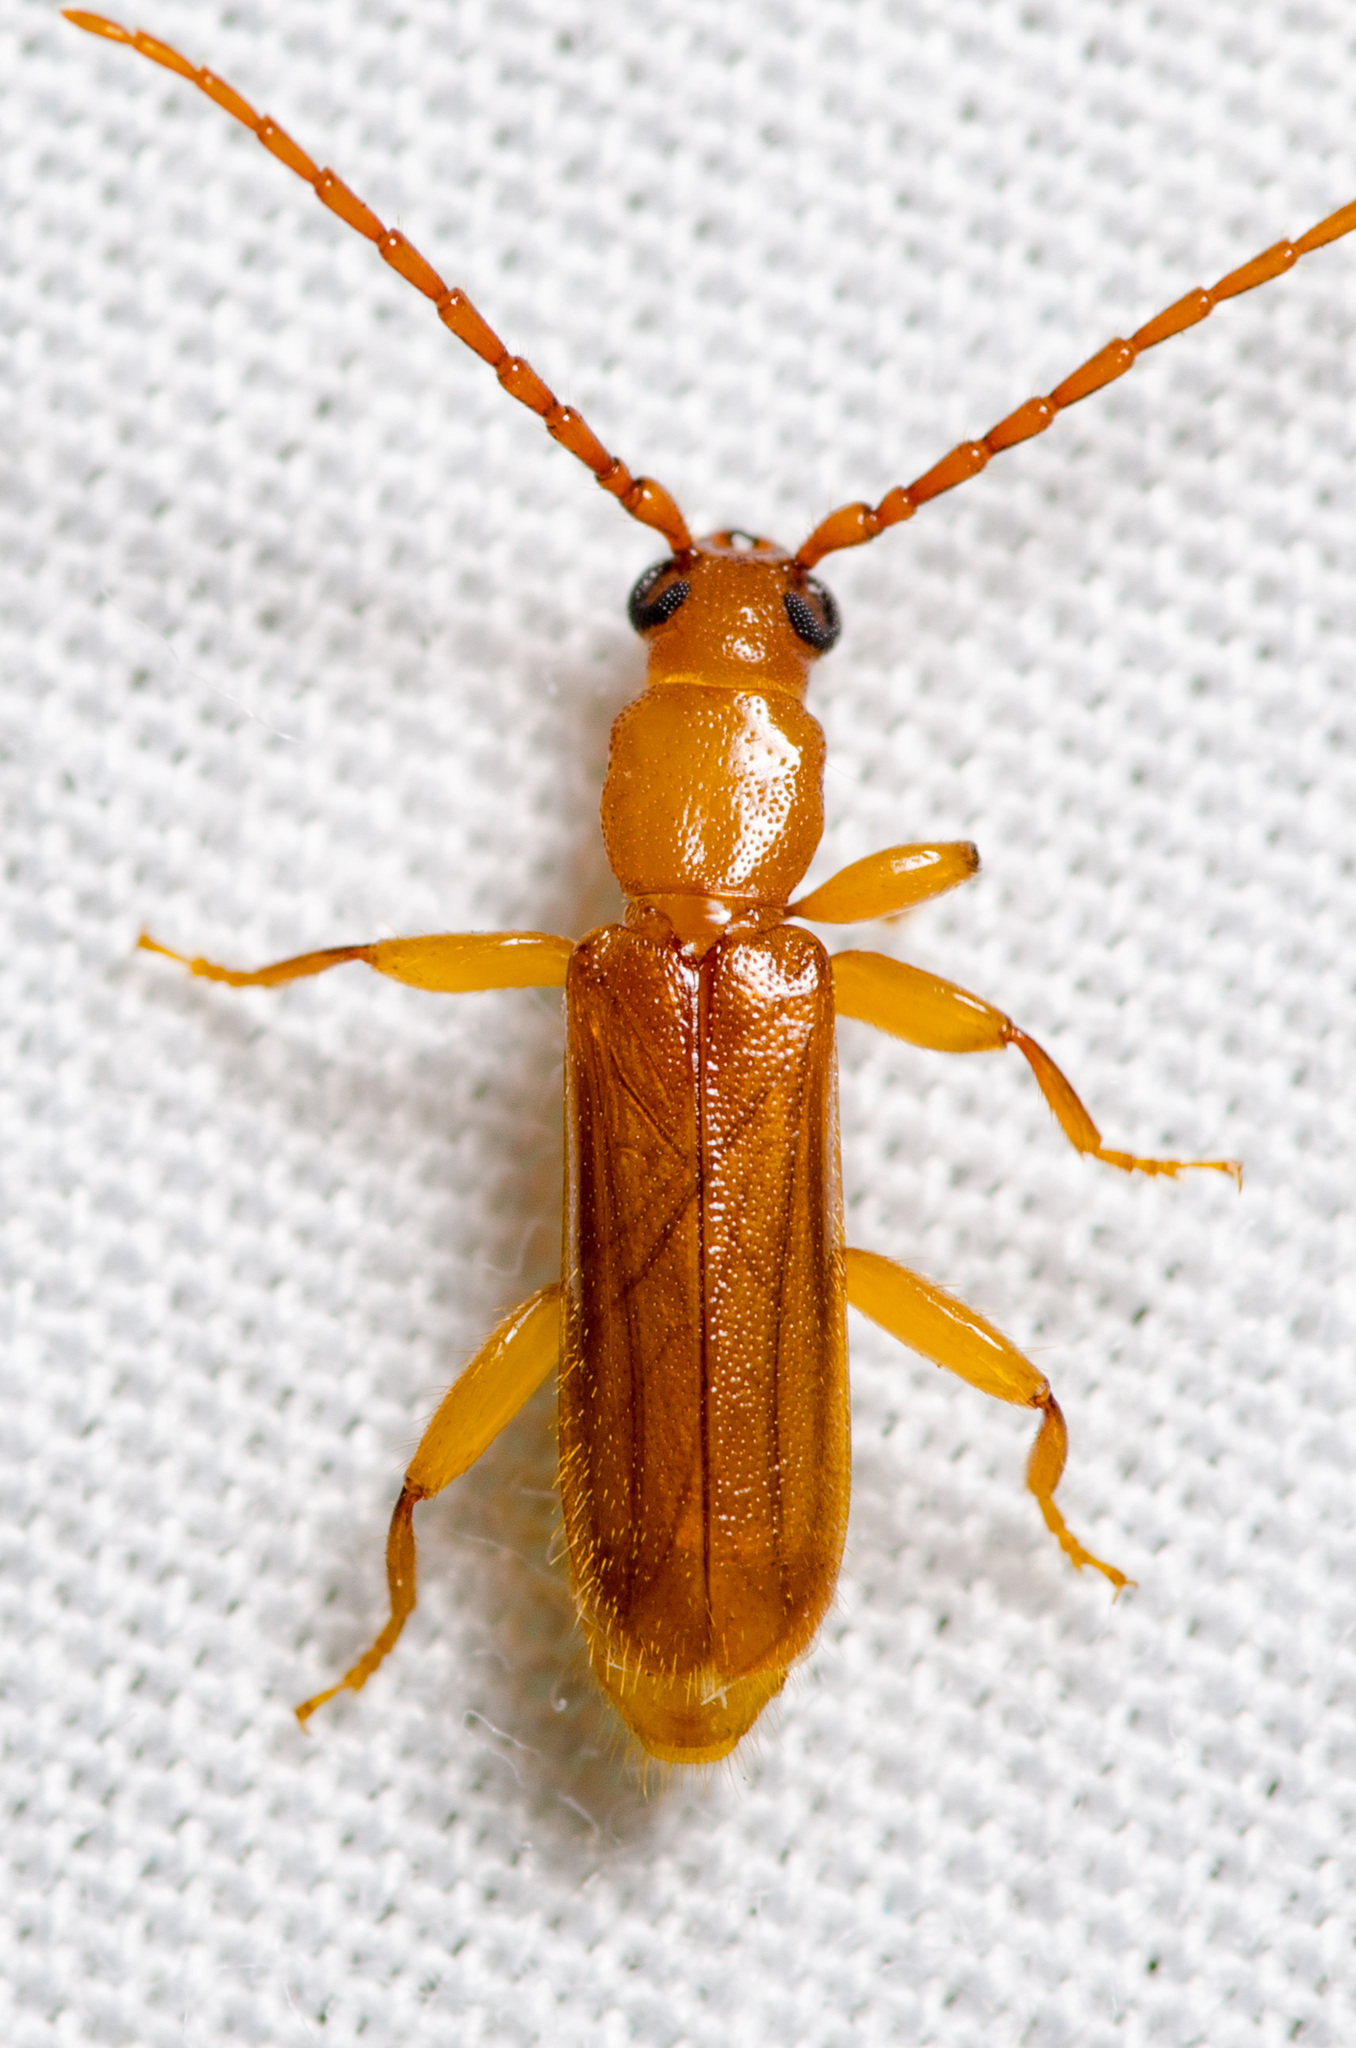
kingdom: Animalia
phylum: Arthropoda
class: Insecta
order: Coleoptera
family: Cerambycidae
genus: Smodicum
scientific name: Smodicum cucujiforme
